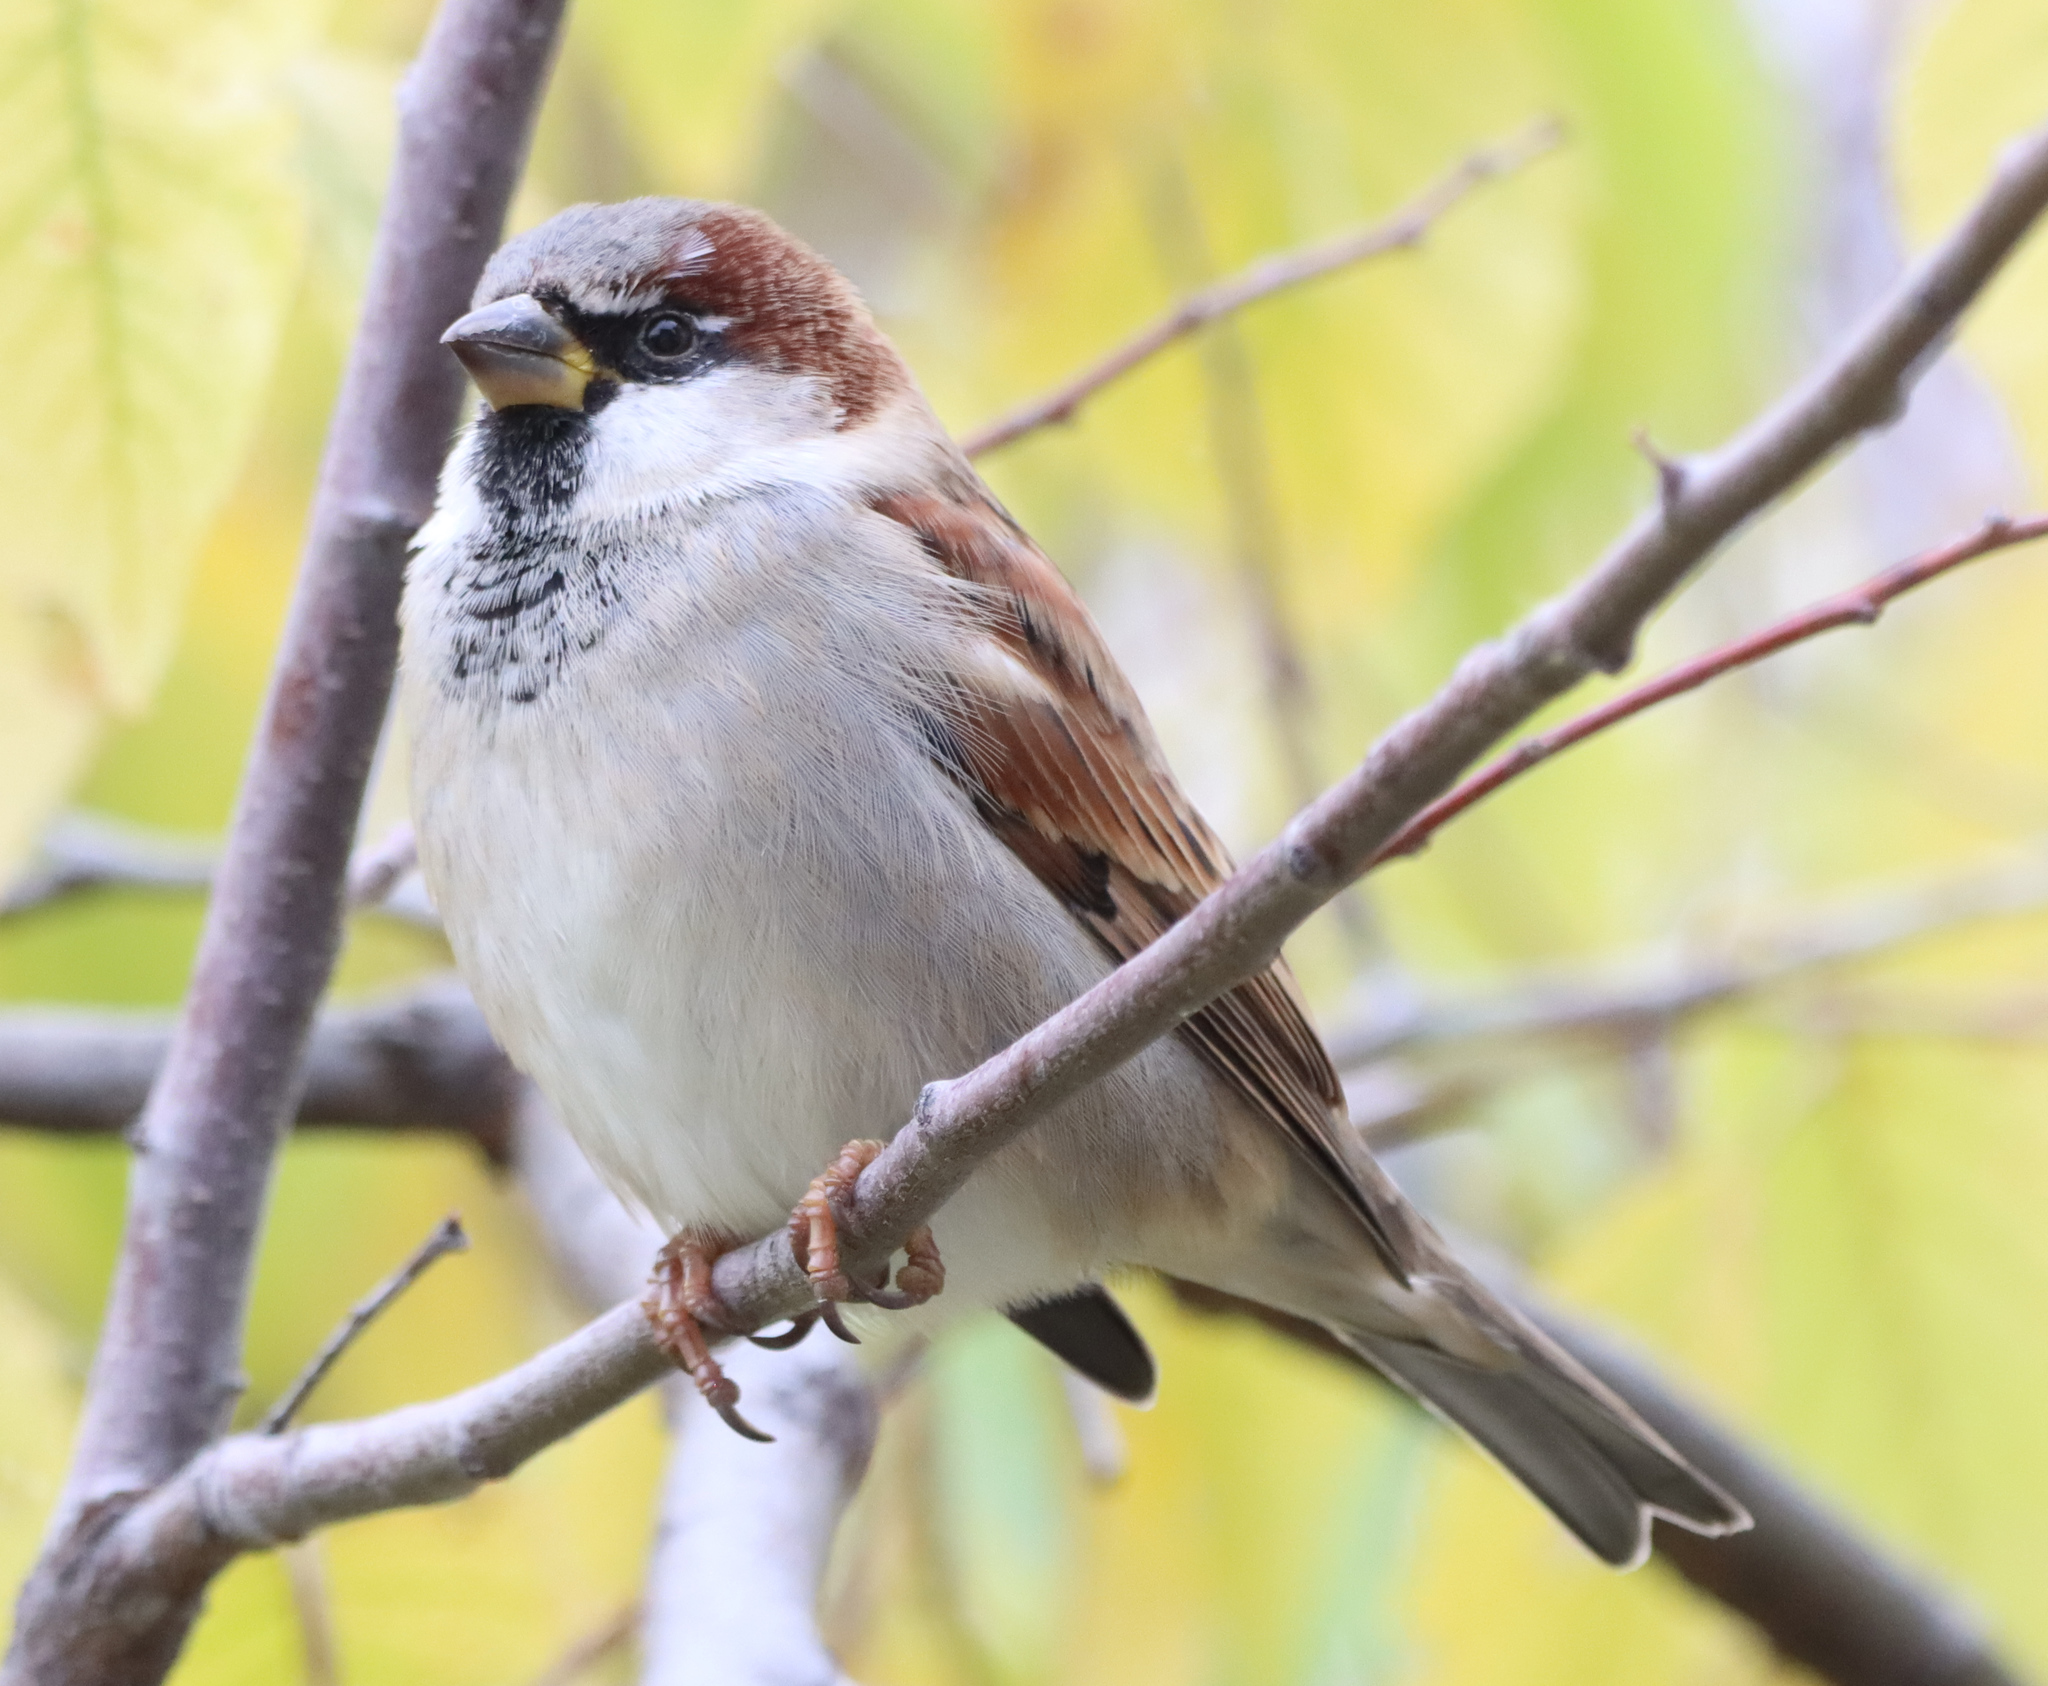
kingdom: Animalia
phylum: Chordata
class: Aves
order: Passeriformes
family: Passeridae
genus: Passer
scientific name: Passer domesticus
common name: House sparrow
